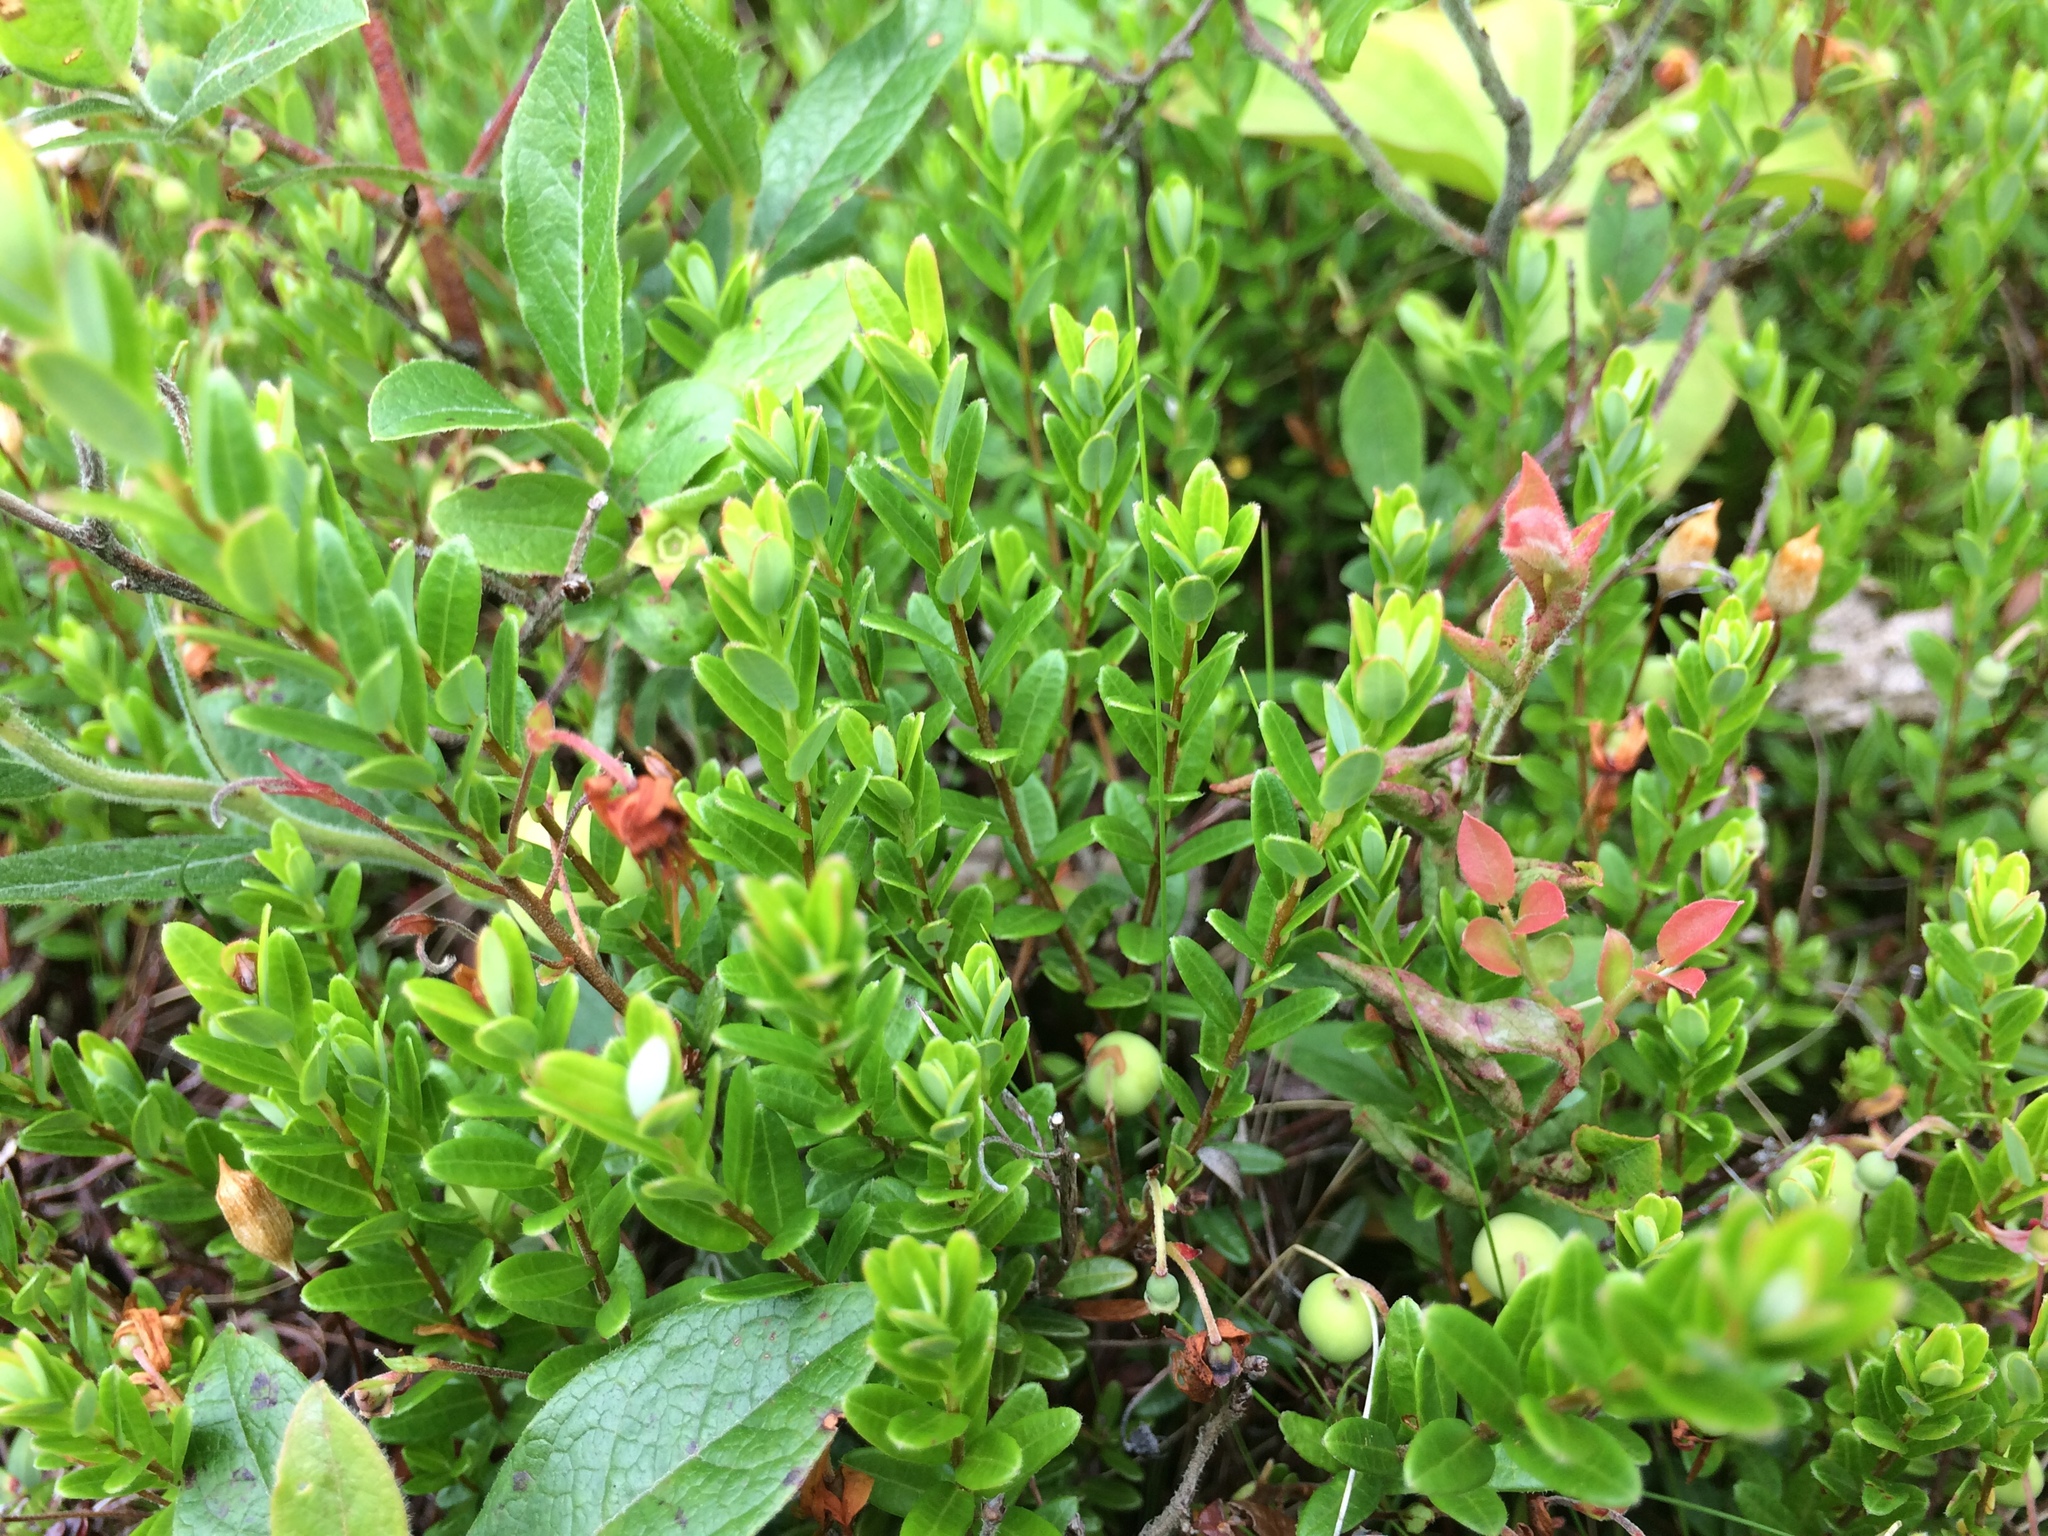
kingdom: Plantae
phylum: Tracheophyta
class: Magnoliopsida
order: Ericales
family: Ericaceae
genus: Vaccinium
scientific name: Vaccinium macrocarpon
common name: American cranberry
